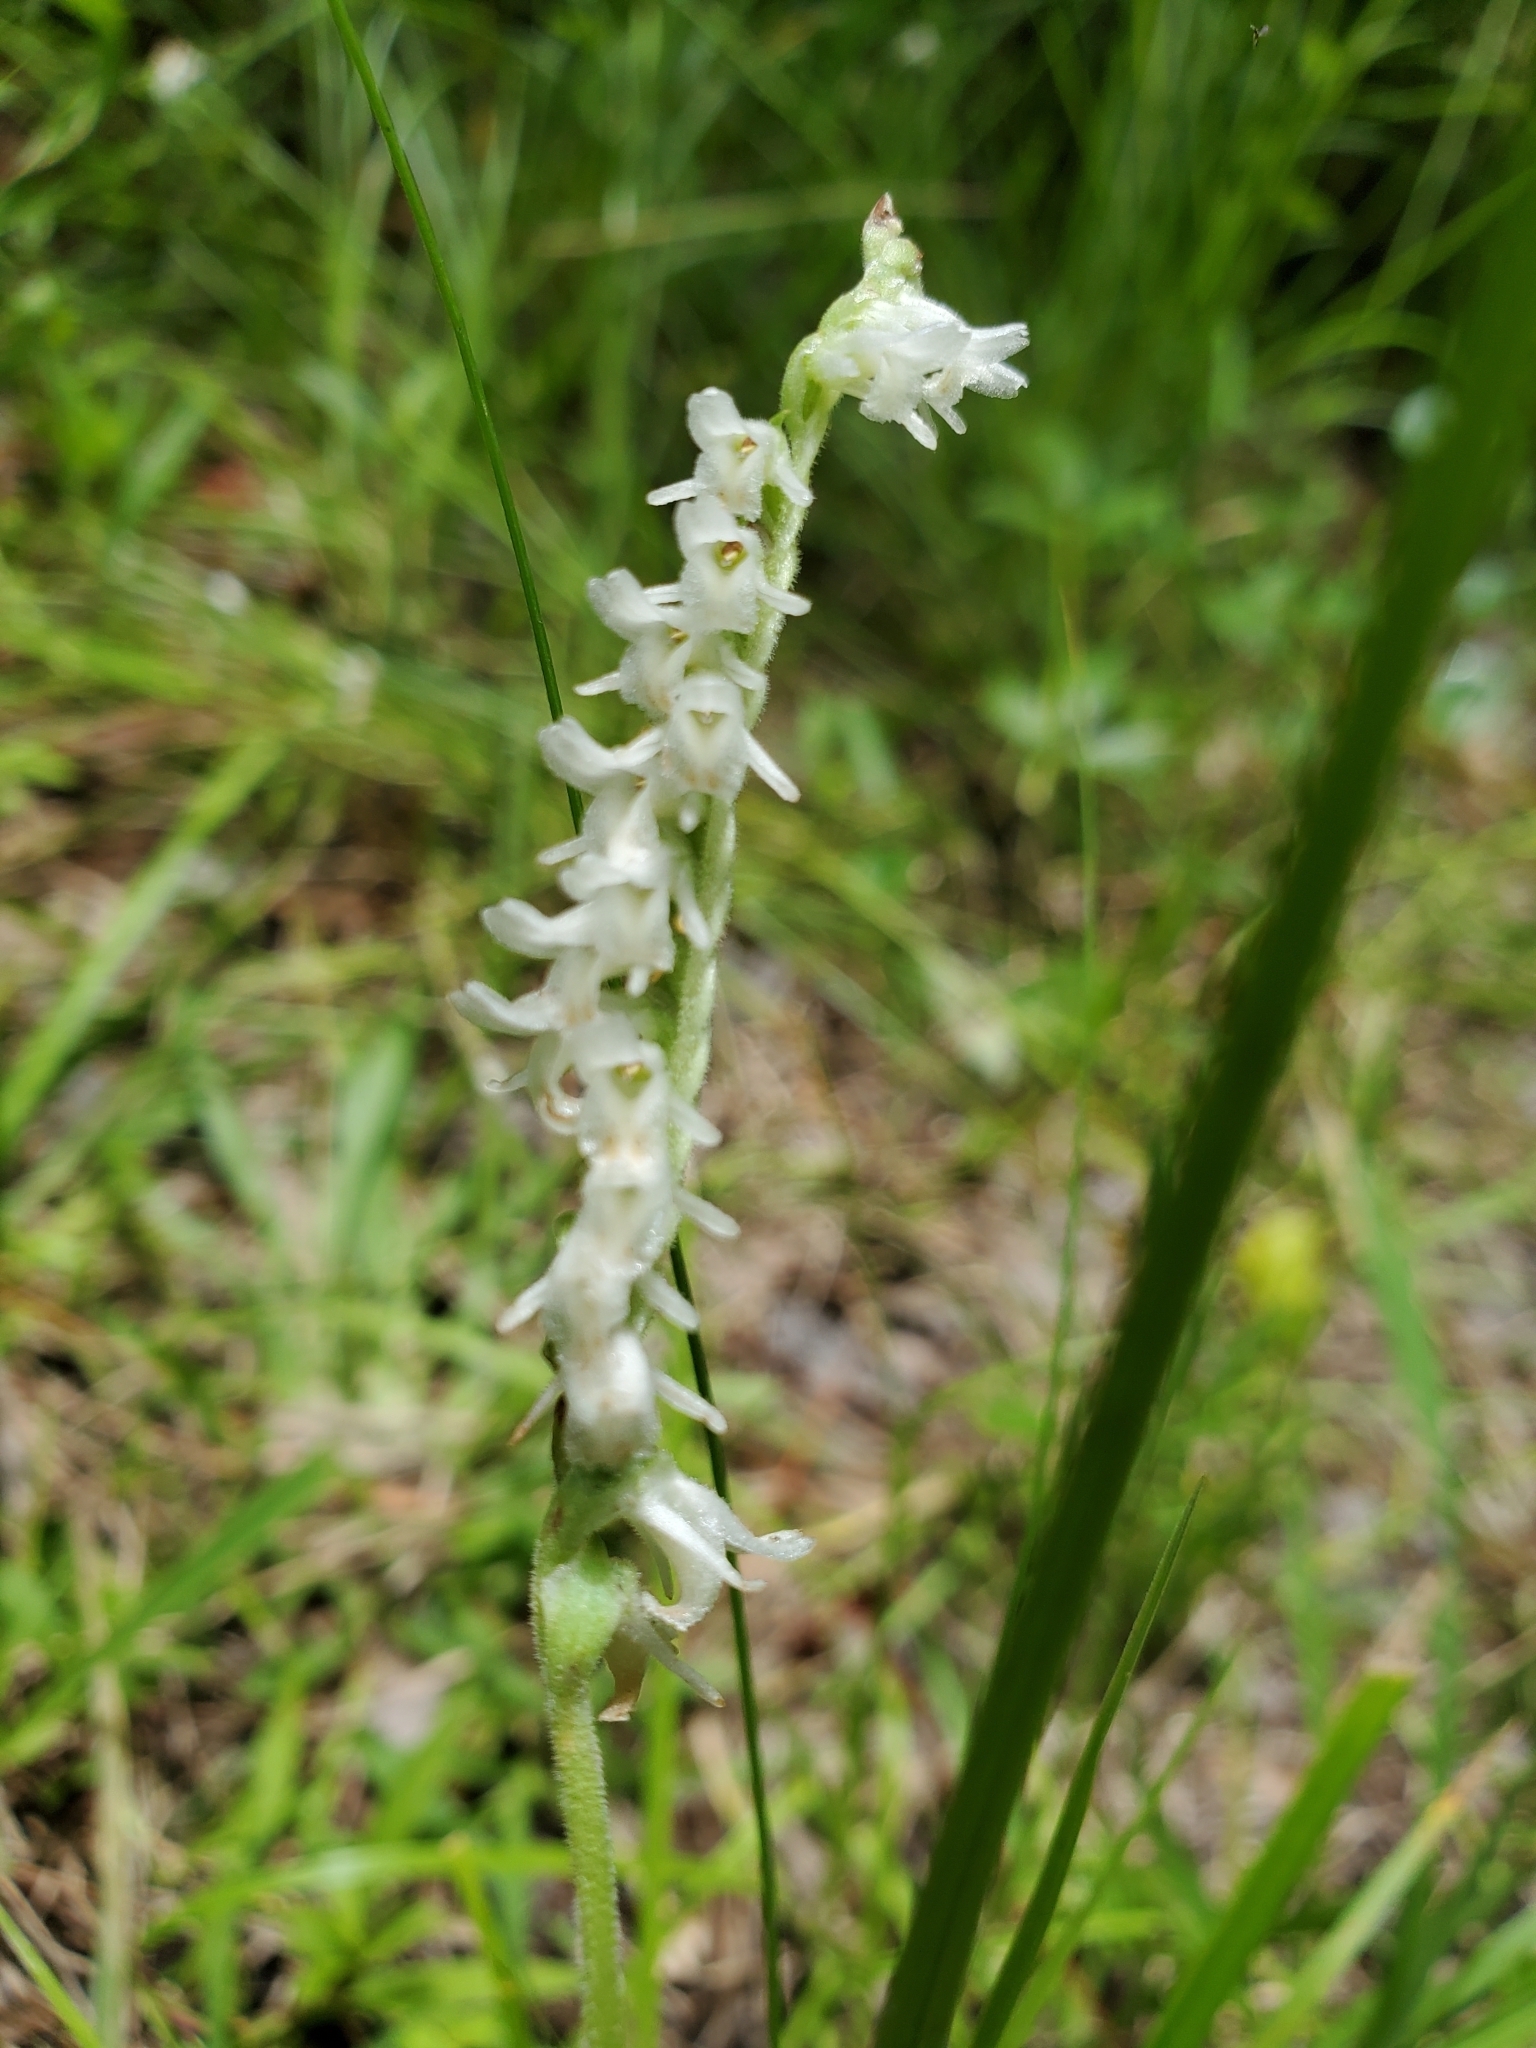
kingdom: Plantae
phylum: Tracheophyta
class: Liliopsida
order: Asparagales
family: Orchidaceae
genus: Spiranthes
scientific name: Spiranthes vernalis
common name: Spring ladies'-tresses
